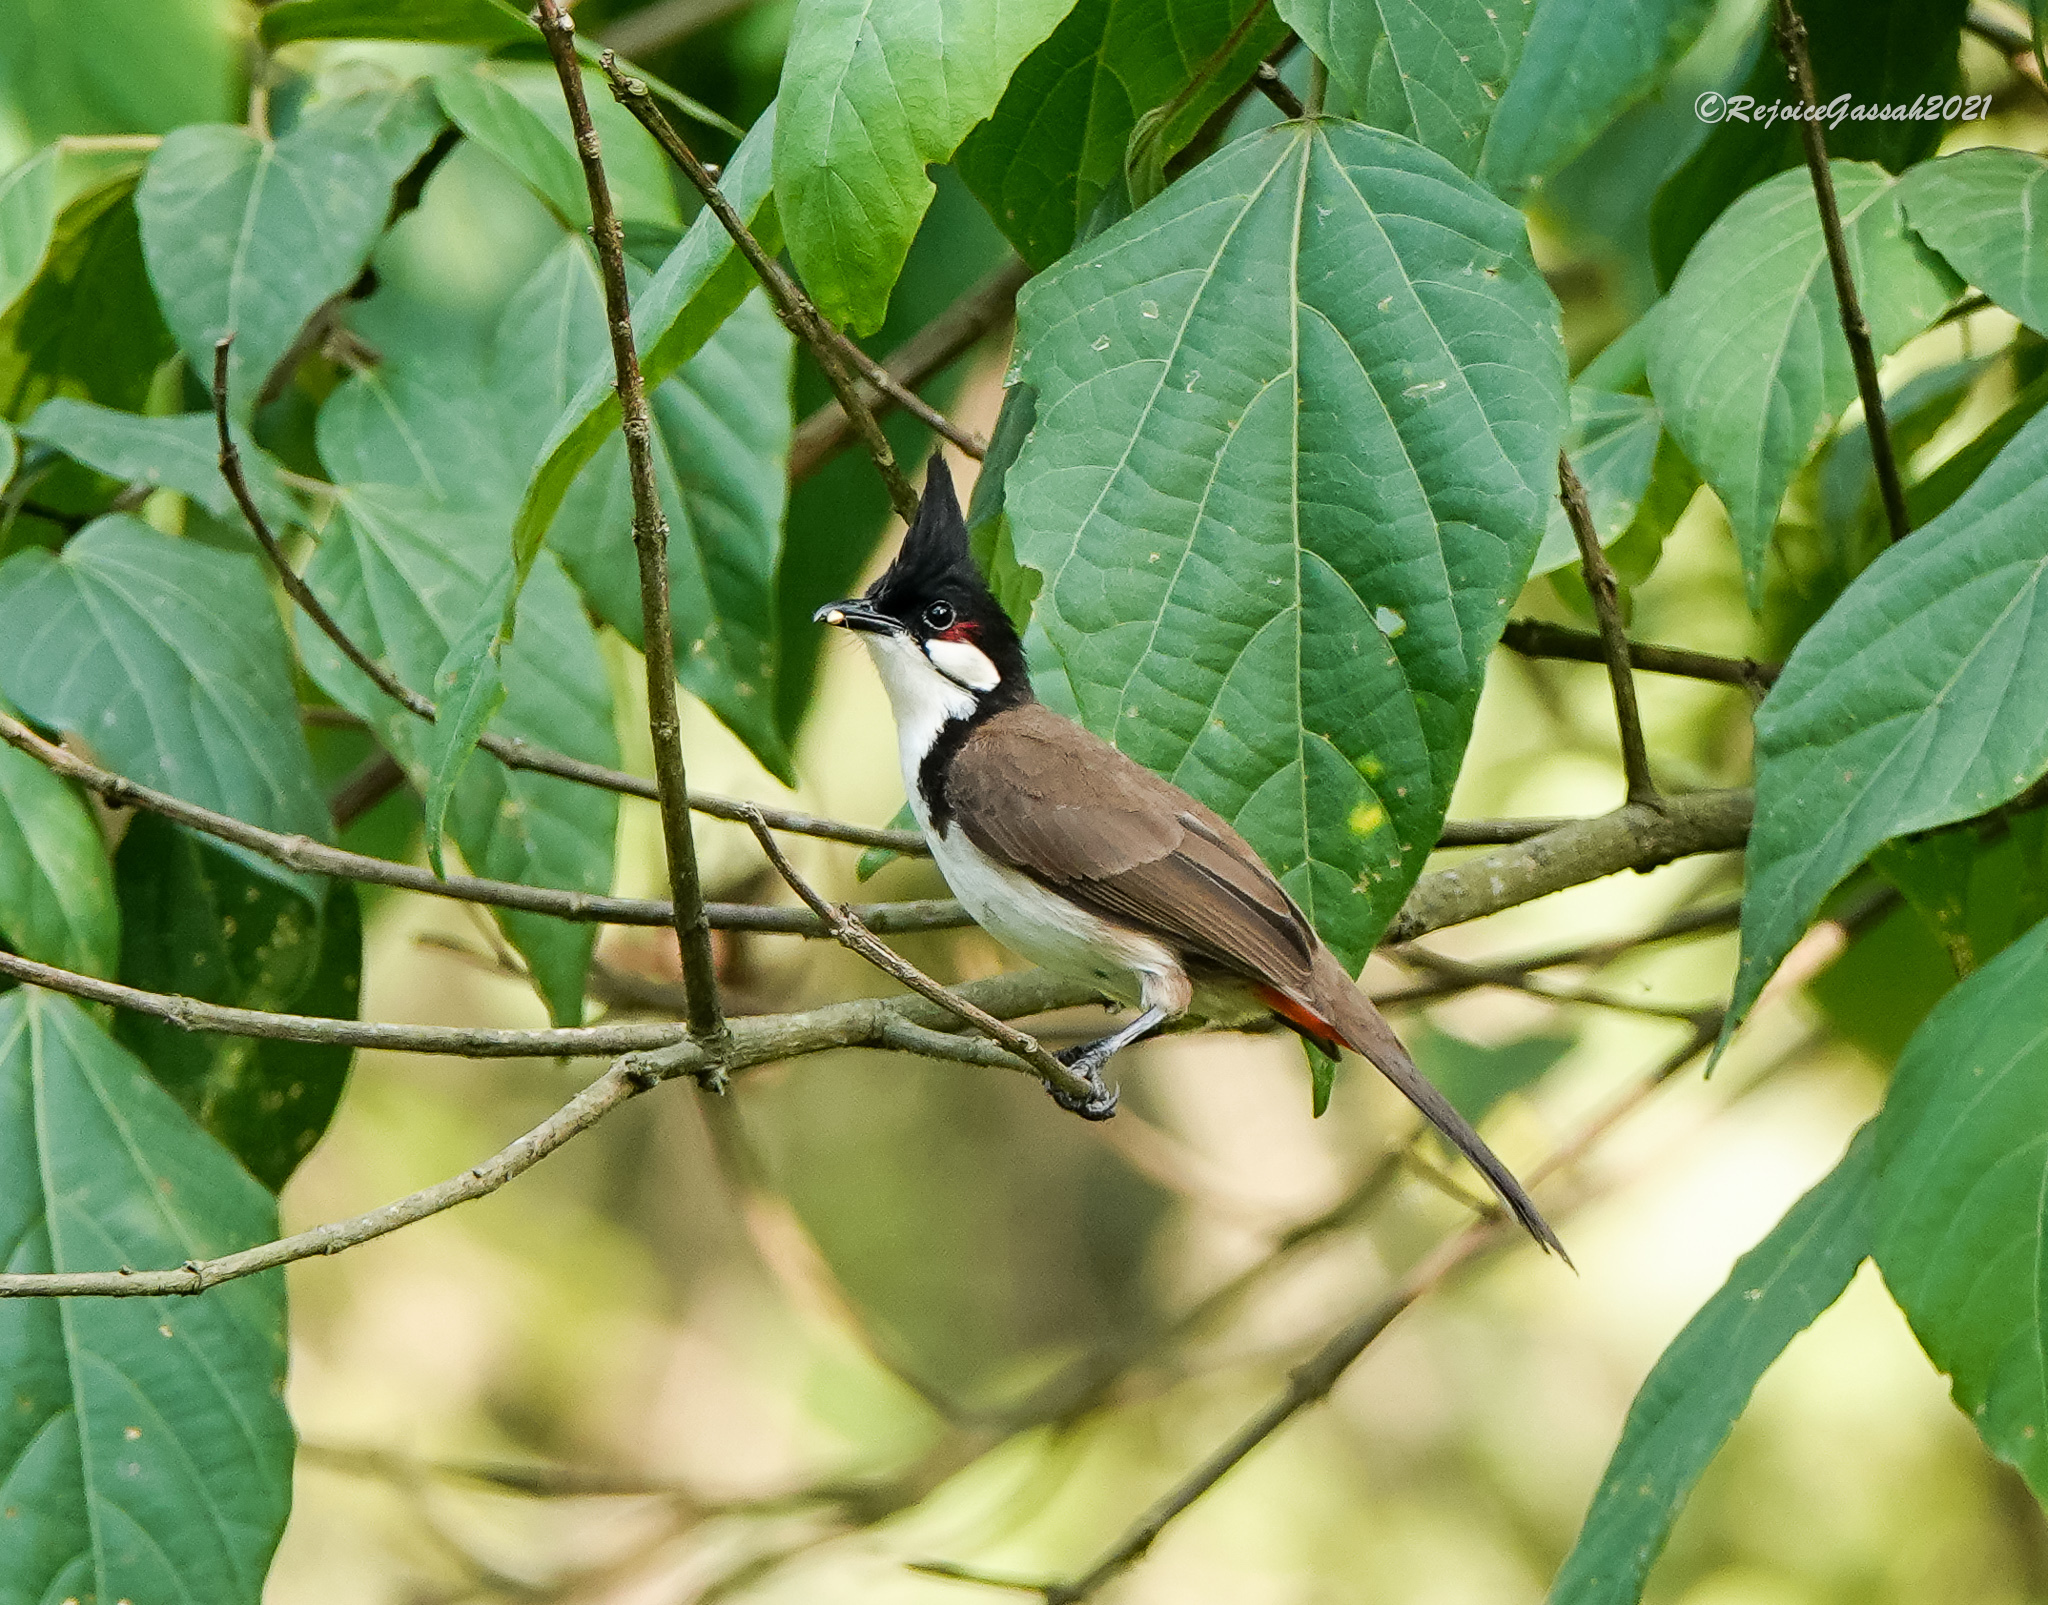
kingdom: Animalia
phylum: Chordata
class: Aves
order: Passeriformes
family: Pycnonotidae
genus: Pycnonotus
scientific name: Pycnonotus jocosus
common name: Red-whiskered bulbul
